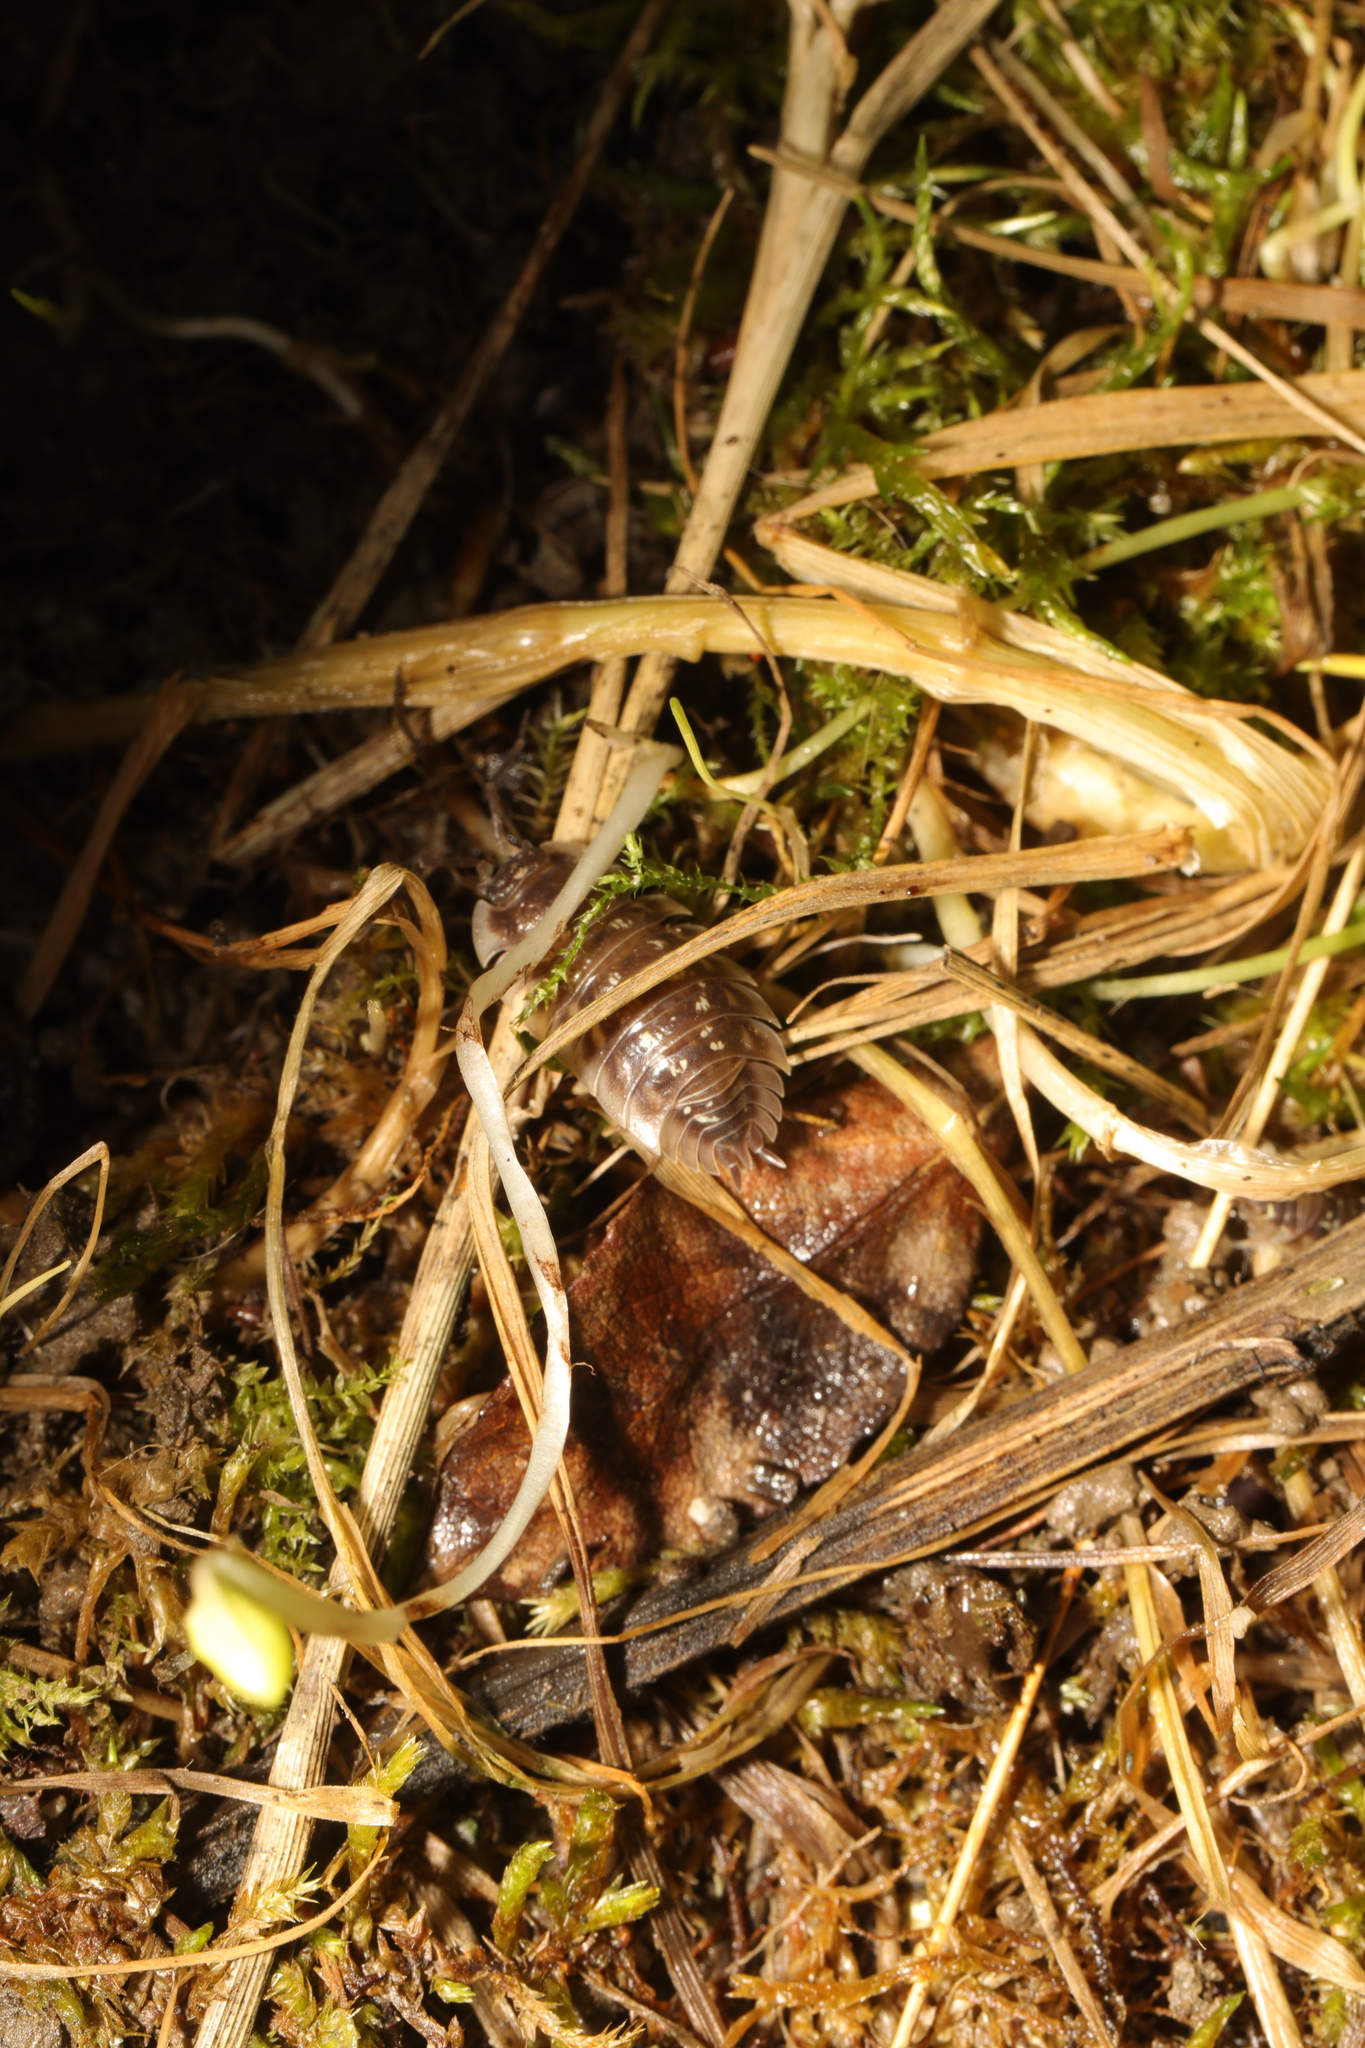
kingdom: Animalia
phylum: Arthropoda
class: Malacostraca
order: Isopoda
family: Oniscidae
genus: Oniscus
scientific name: Oniscus asellus
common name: Common shiny woodlouse
